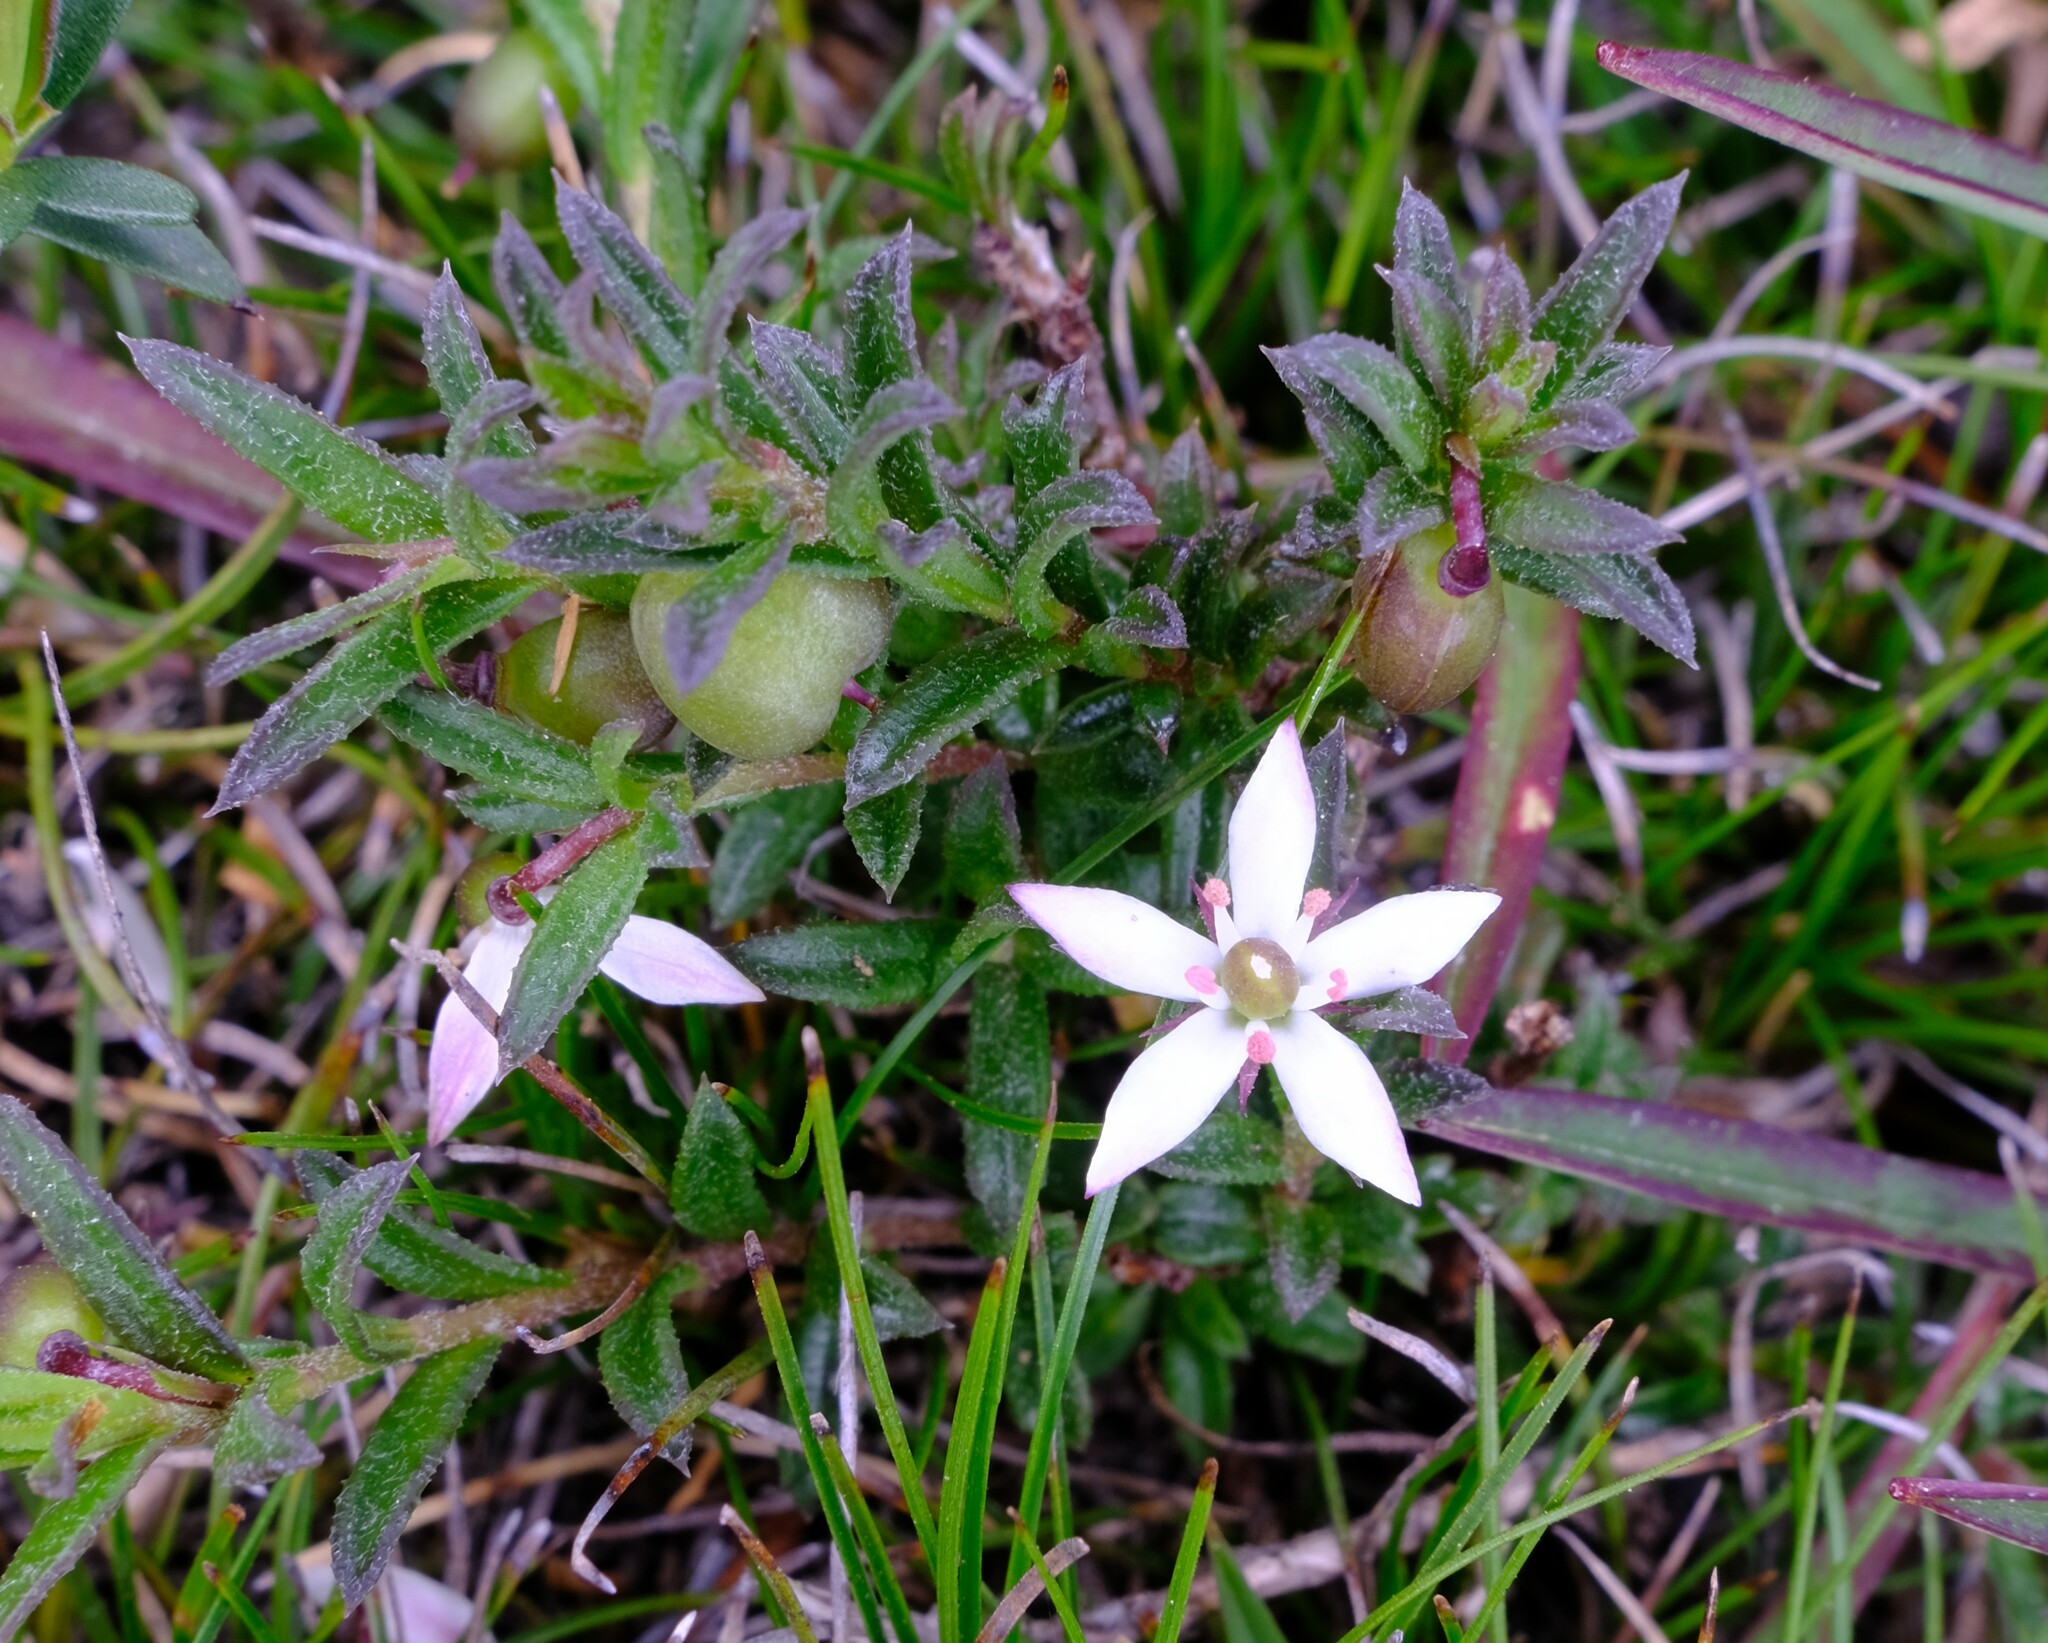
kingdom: Plantae
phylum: Tracheophyta
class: Magnoliopsida
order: Apiales
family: Pittosporaceae
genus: Rhytidosporum
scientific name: Rhytidosporum procumbens
